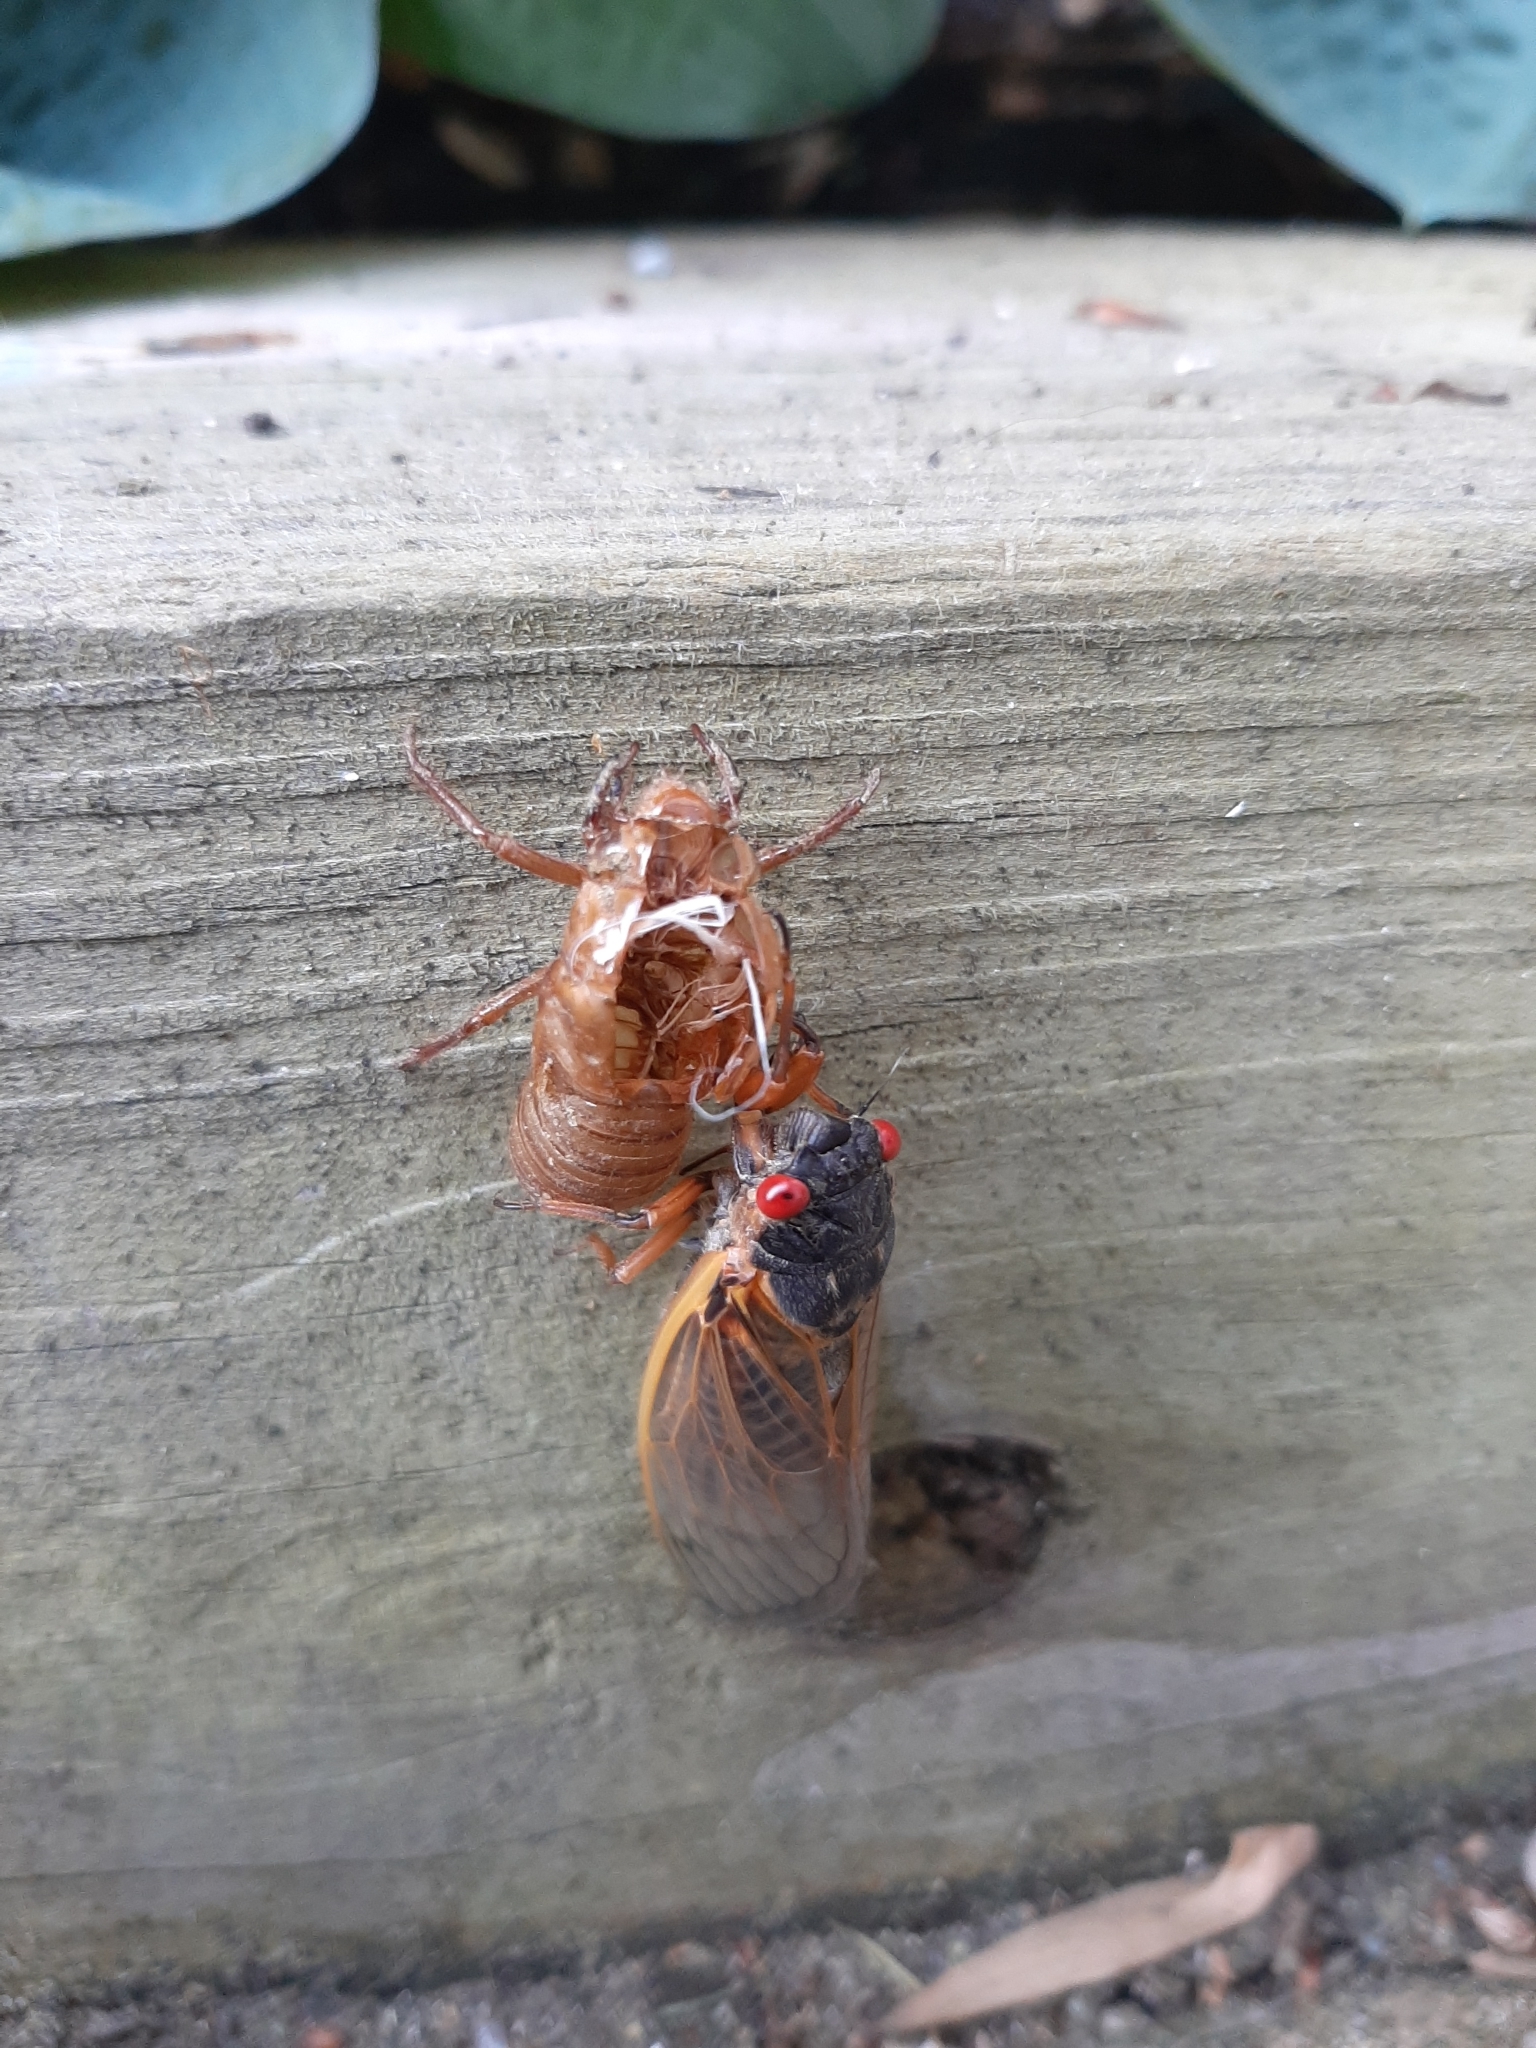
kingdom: Animalia
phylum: Arthropoda
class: Insecta
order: Hemiptera
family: Cicadidae
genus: Magicicada
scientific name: Magicicada septendecim
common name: Periodical cicada
